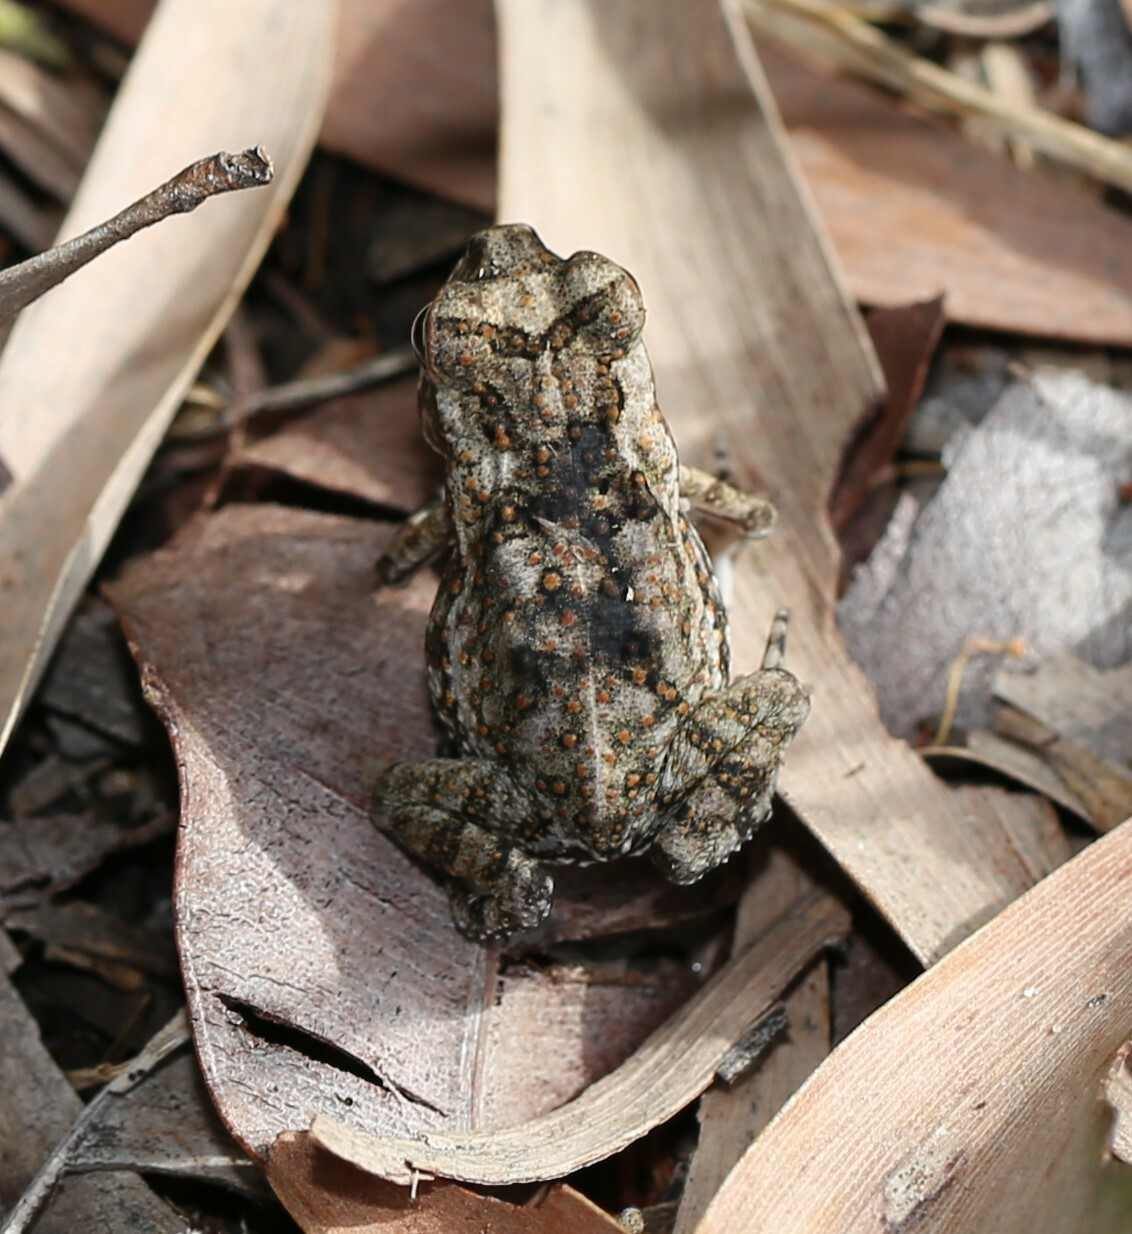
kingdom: Animalia
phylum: Chordata
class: Amphibia
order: Anura
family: Bufonidae
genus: Rhinella
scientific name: Rhinella marina
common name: Cane toad
